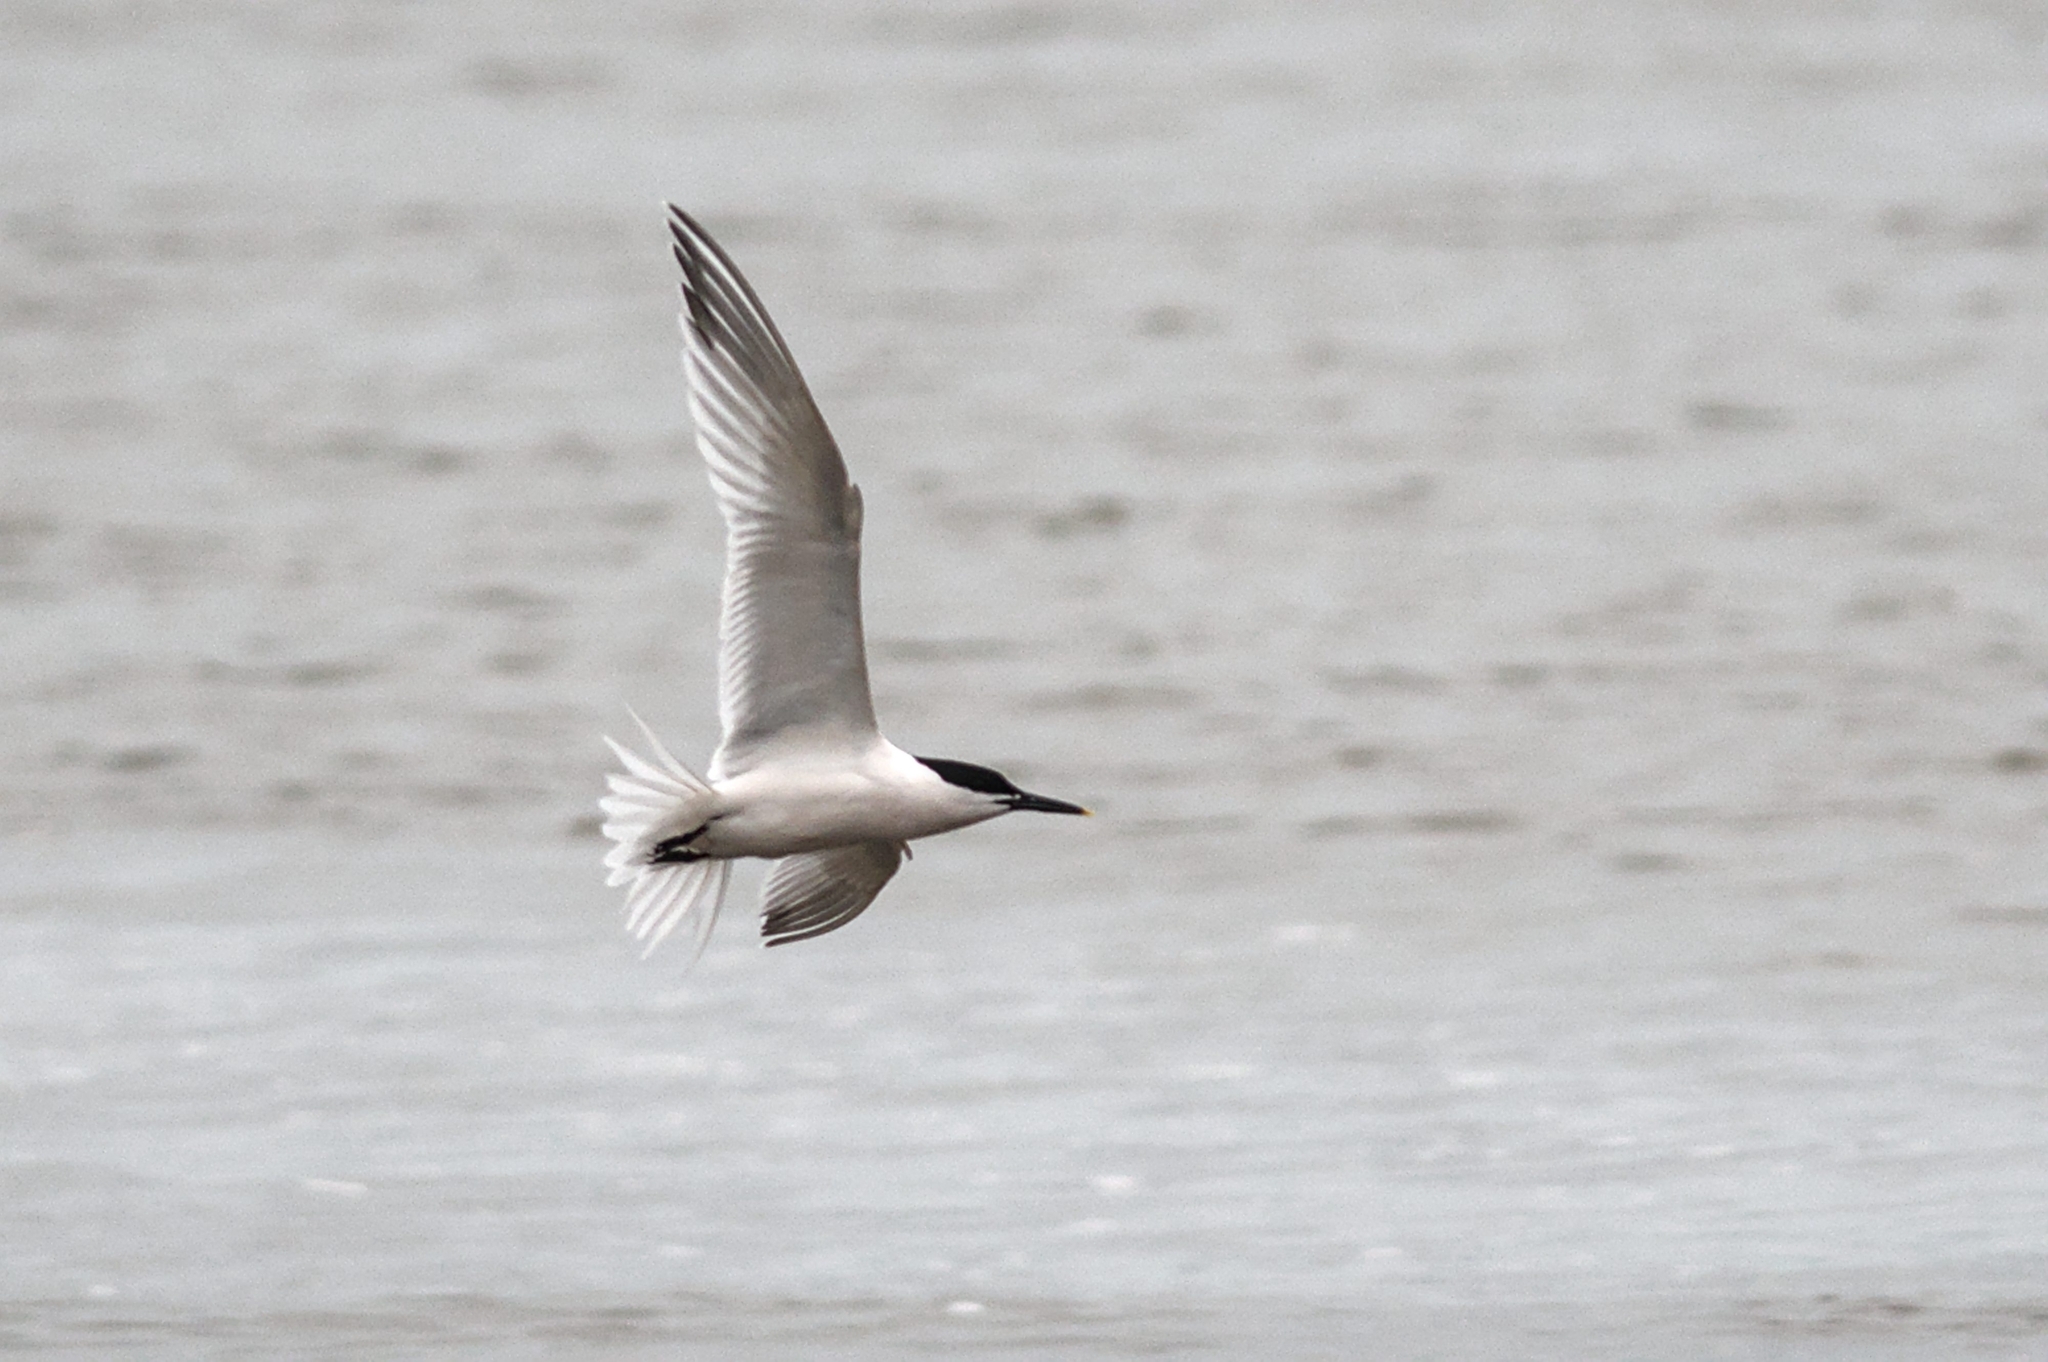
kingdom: Animalia
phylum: Chordata
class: Aves
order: Charadriiformes
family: Laridae
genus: Thalasseus
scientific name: Thalasseus sandvicensis
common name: Sandwich tern
